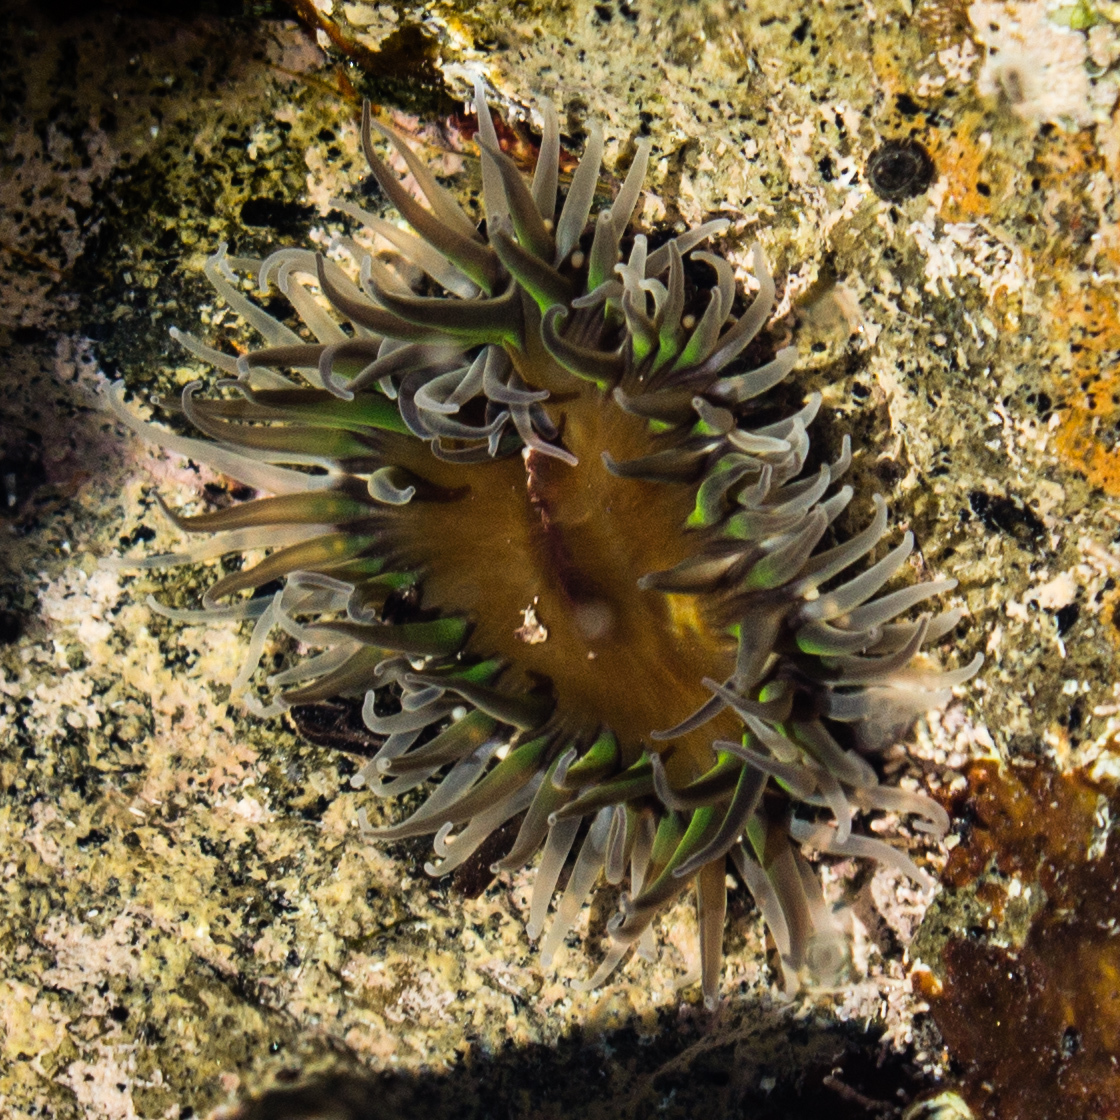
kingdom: Animalia
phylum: Cnidaria
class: Anthozoa
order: Actiniaria
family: Actiniidae
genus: Oulactis
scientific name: Oulactis magna
